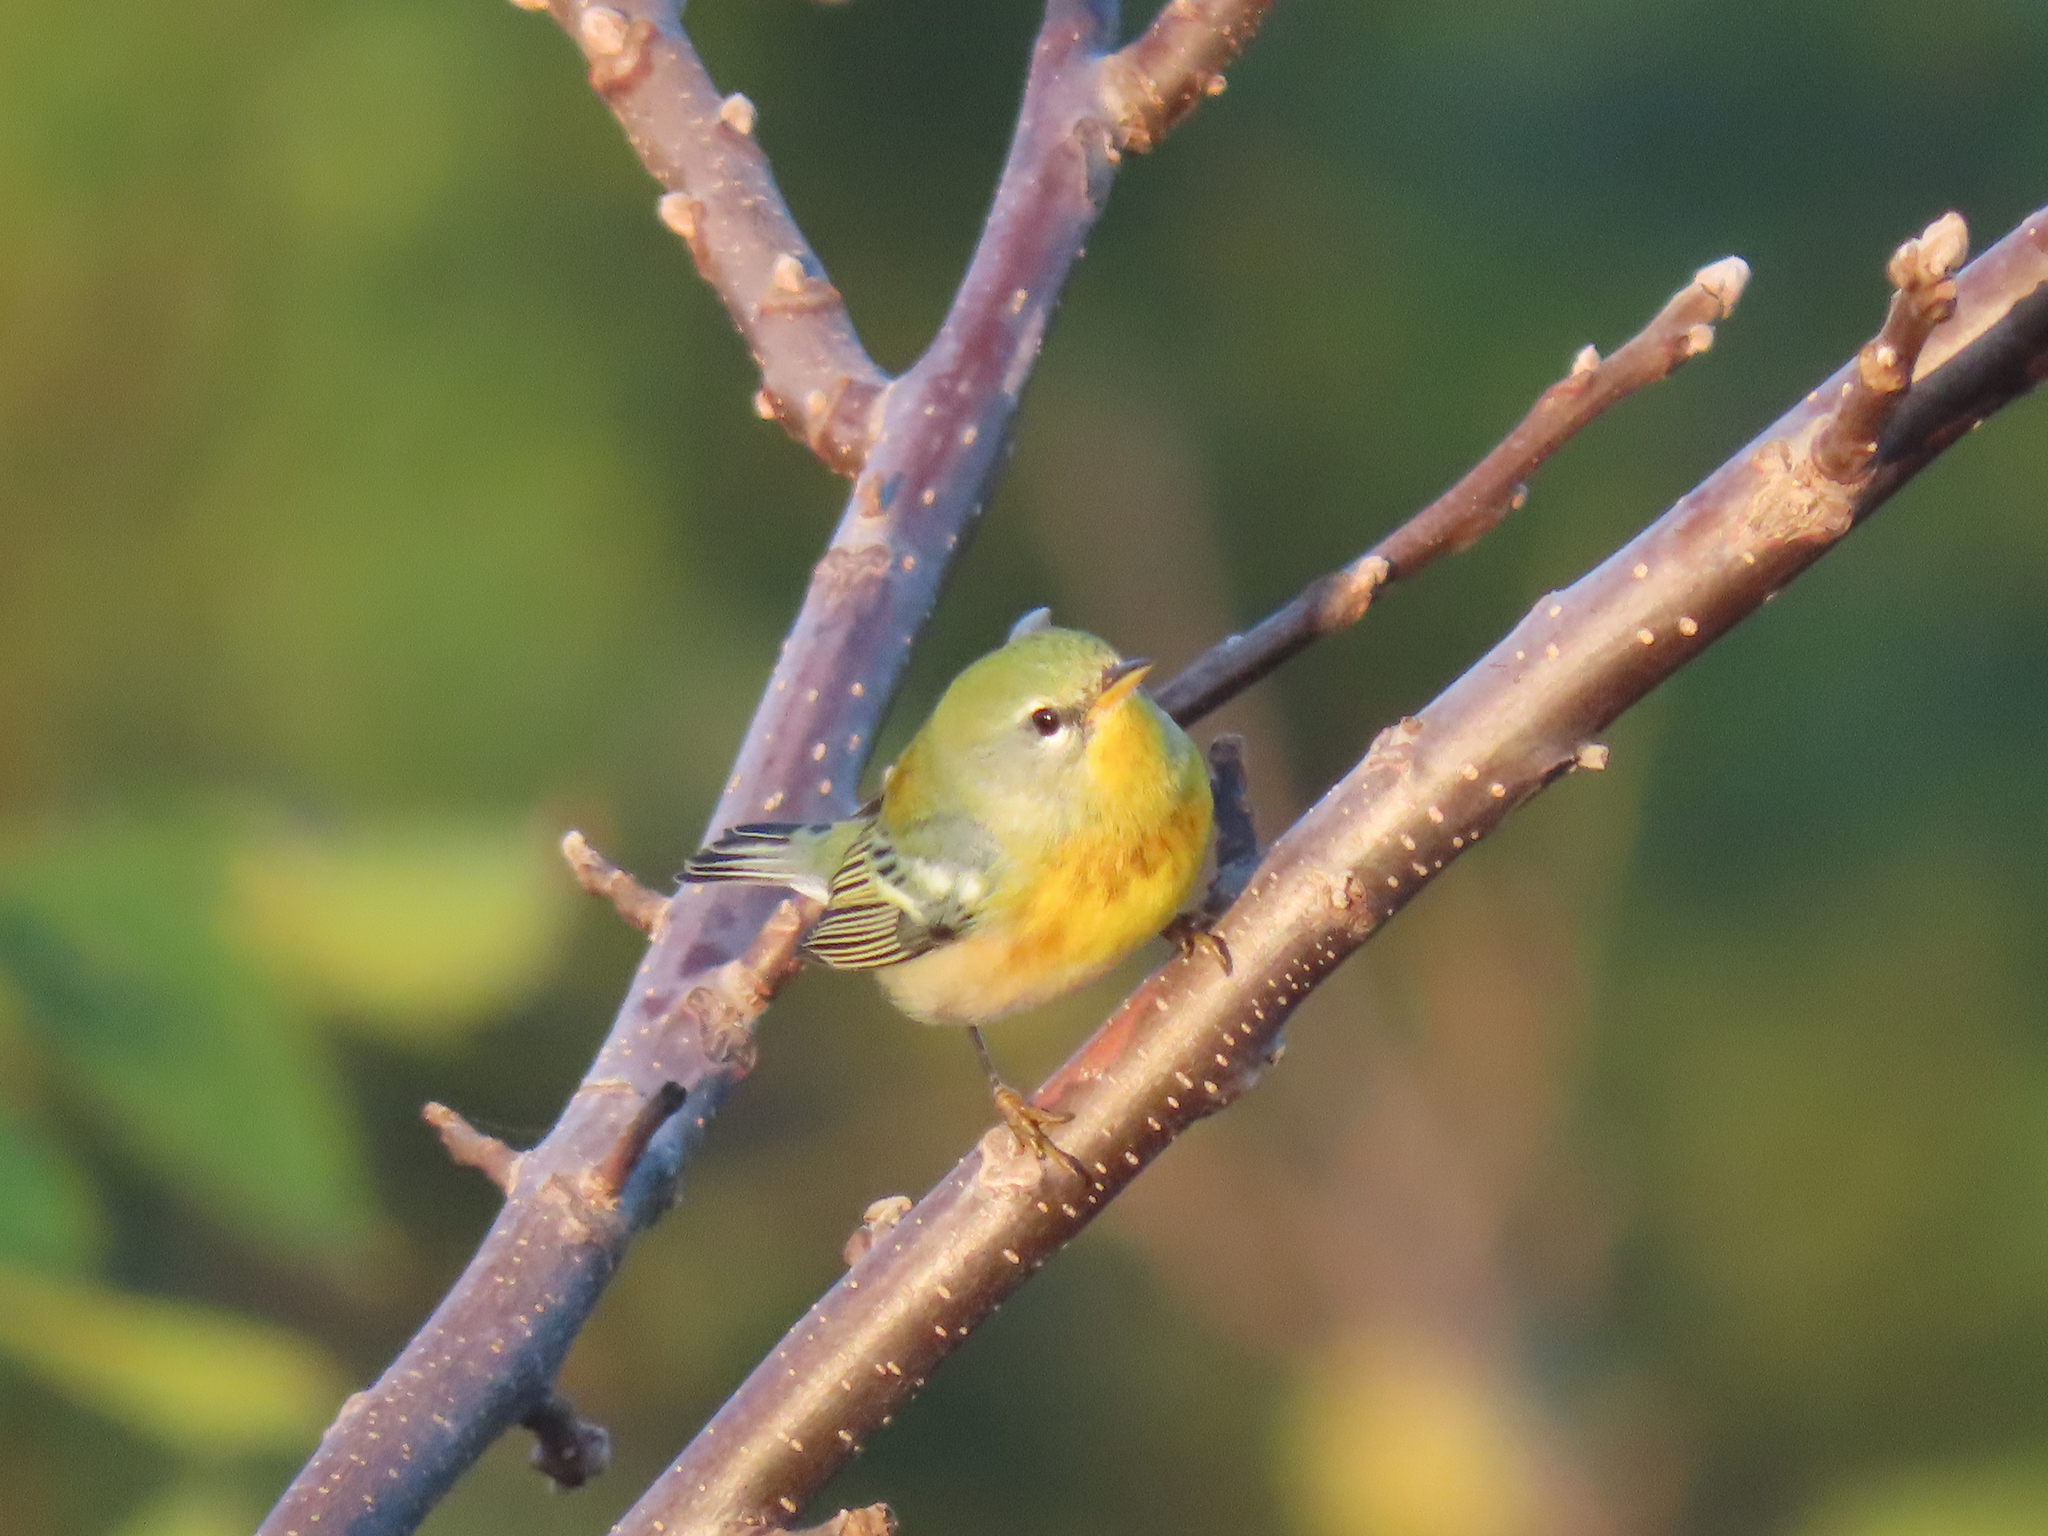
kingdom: Animalia
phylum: Chordata
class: Aves
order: Passeriformes
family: Parulidae
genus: Setophaga
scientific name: Setophaga americana
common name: Northern parula
